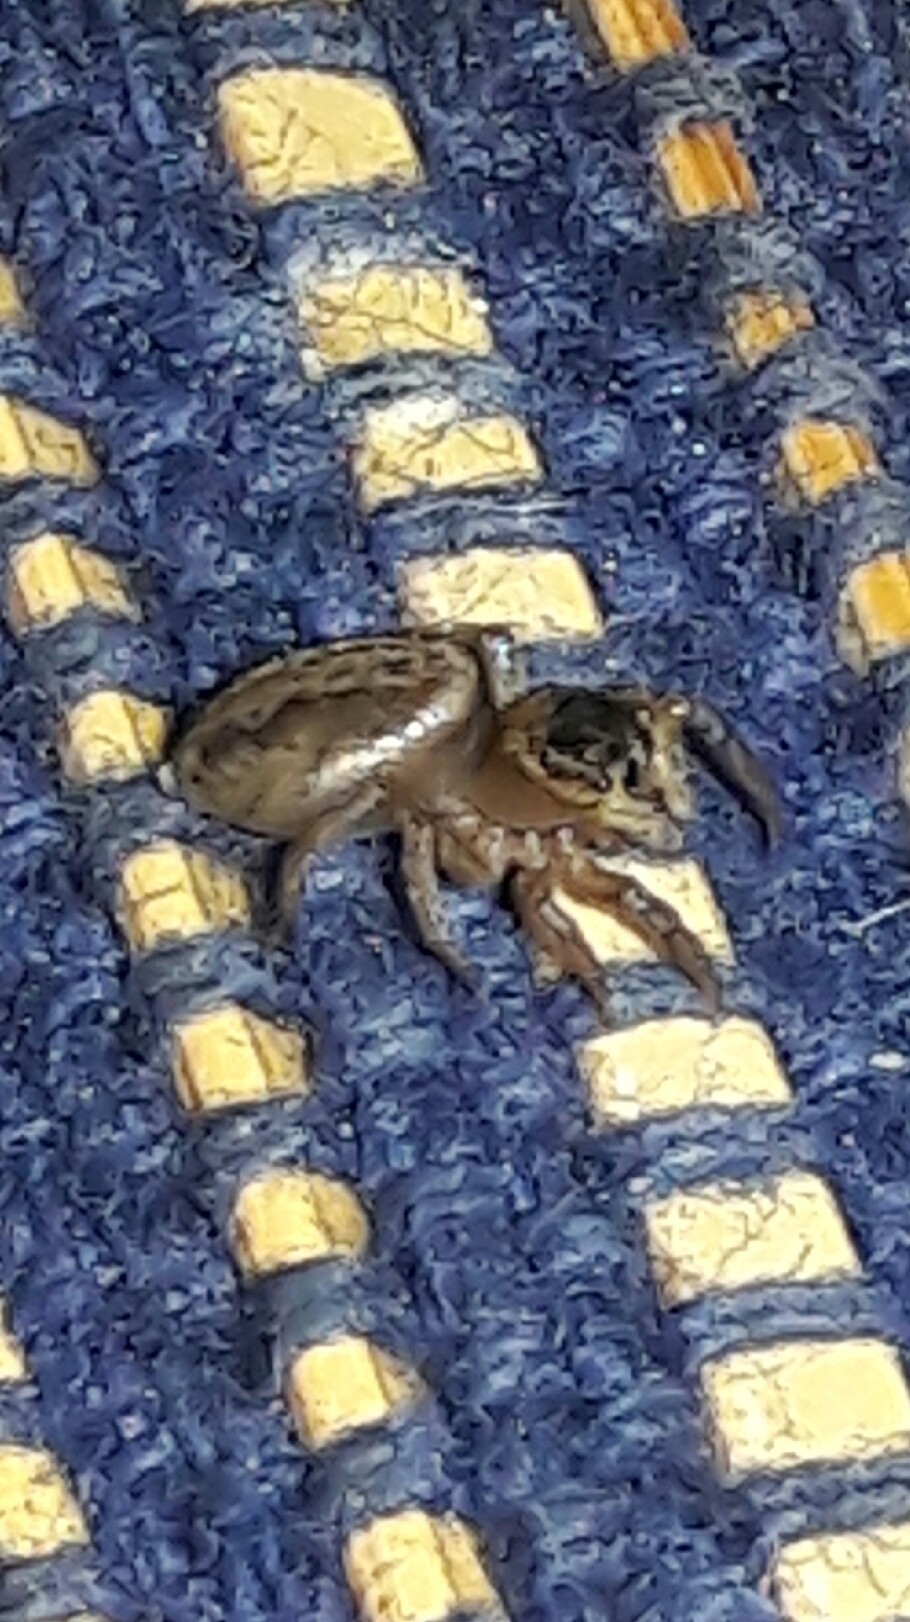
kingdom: Animalia
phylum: Arthropoda
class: Arachnida
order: Araneae
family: Salticidae
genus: Hasarius
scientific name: Hasarius adansoni
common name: Jumping spider
